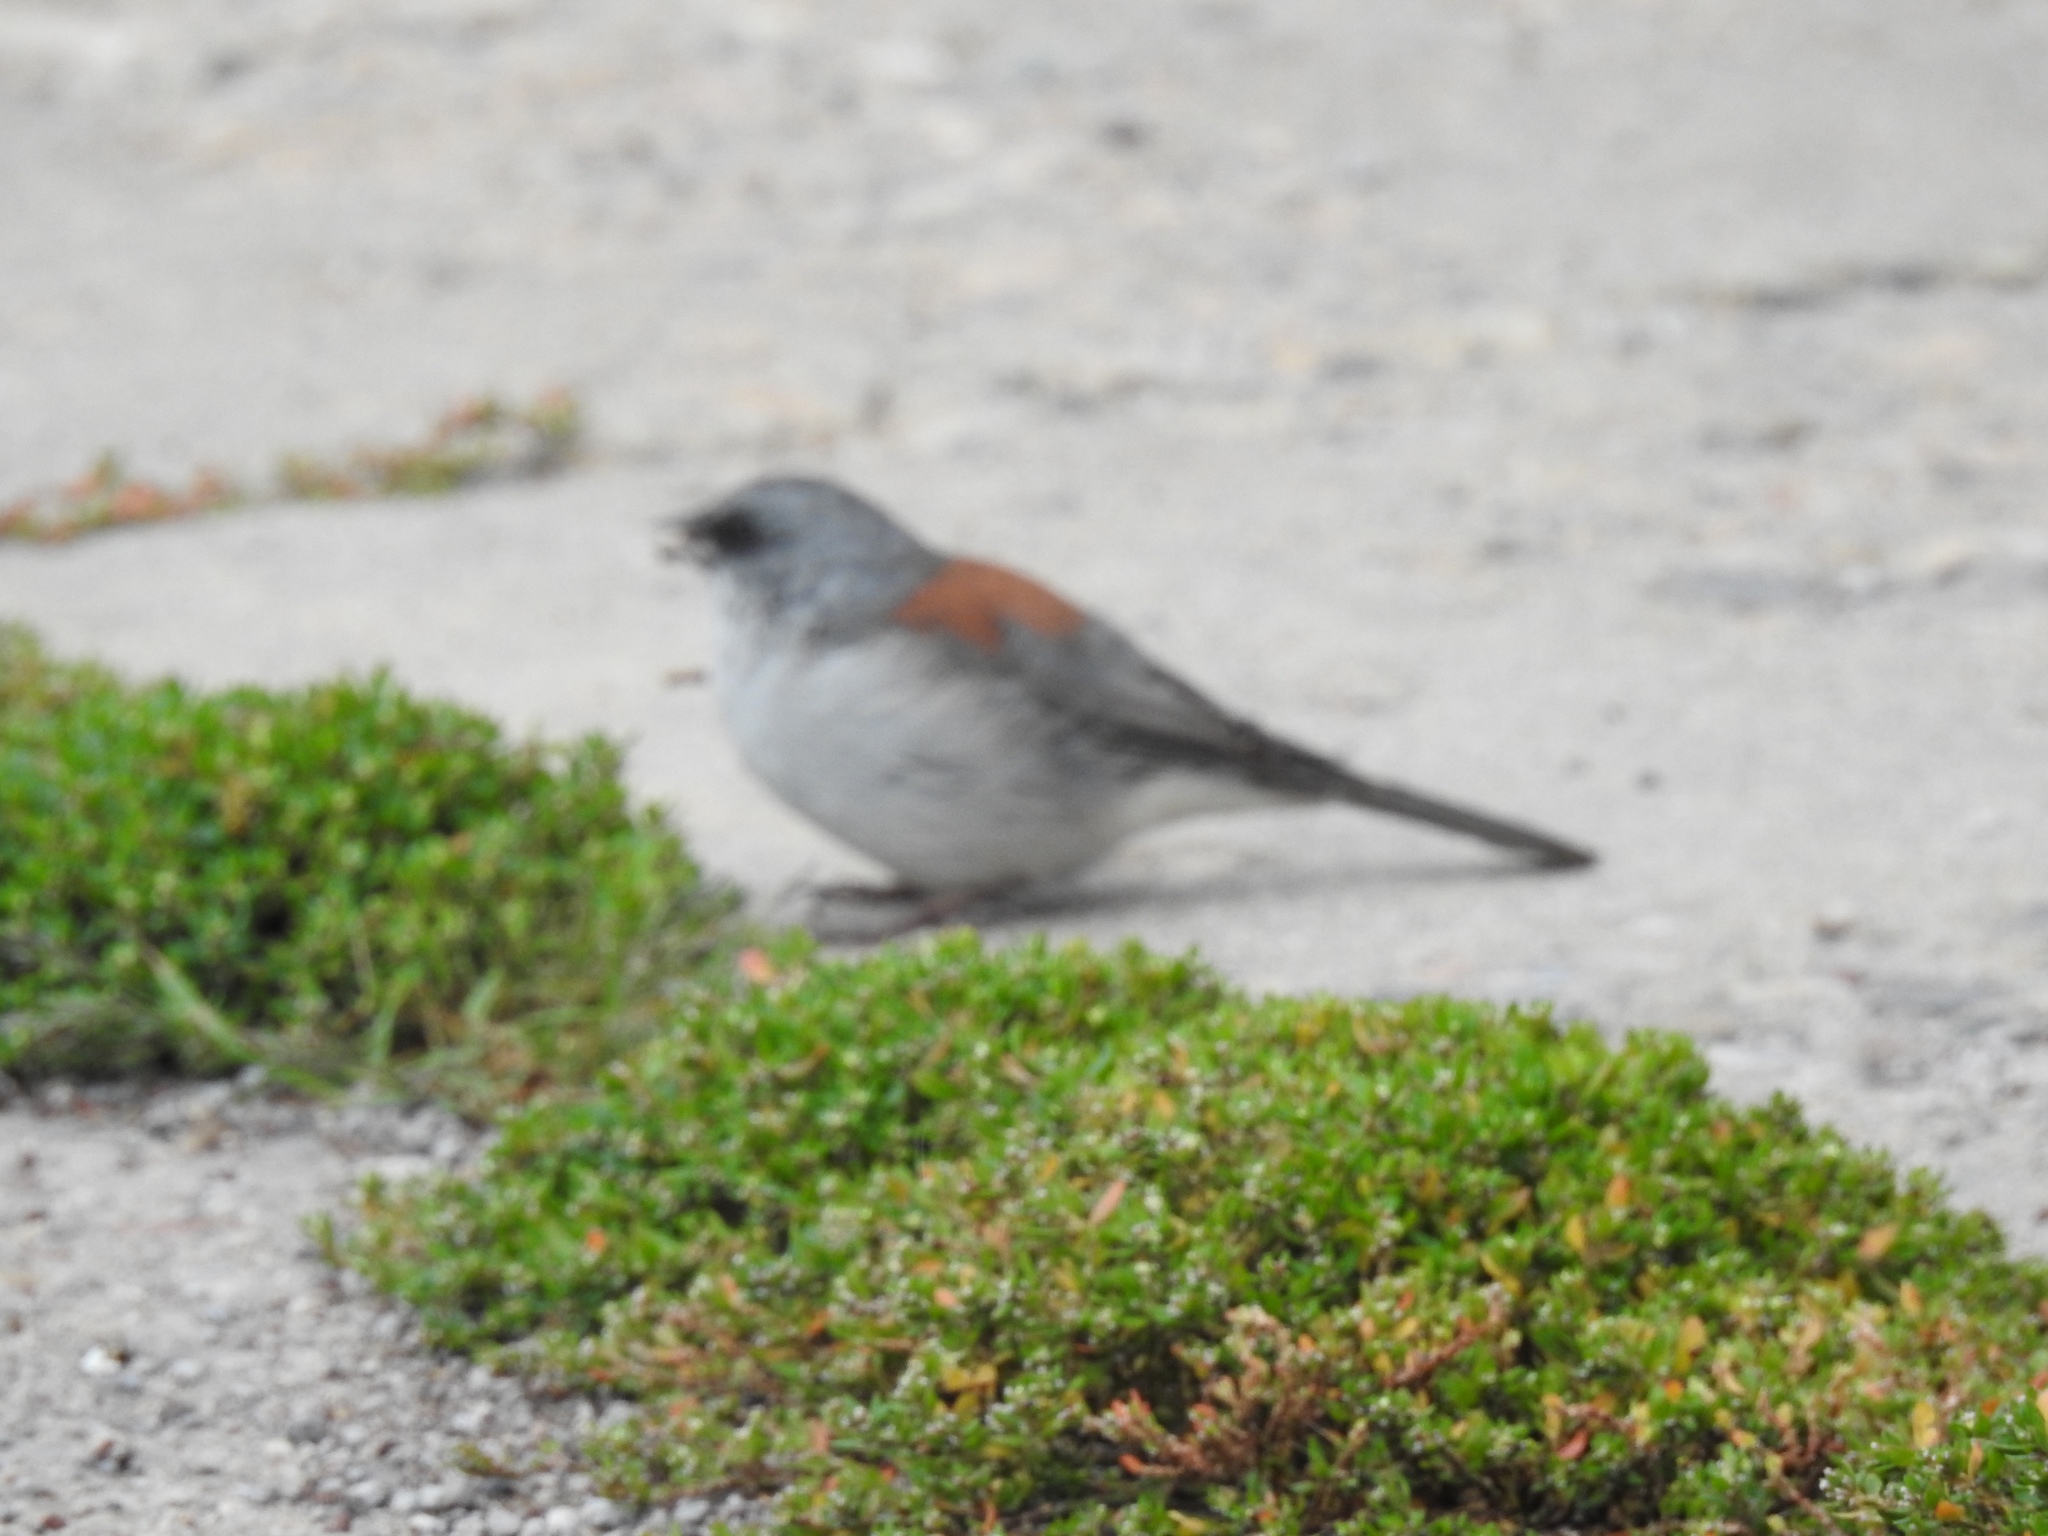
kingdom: Animalia
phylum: Chordata
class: Aves
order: Passeriformes
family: Passerellidae
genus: Junco
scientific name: Junco hyemalis
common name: Dark-eyed junco
